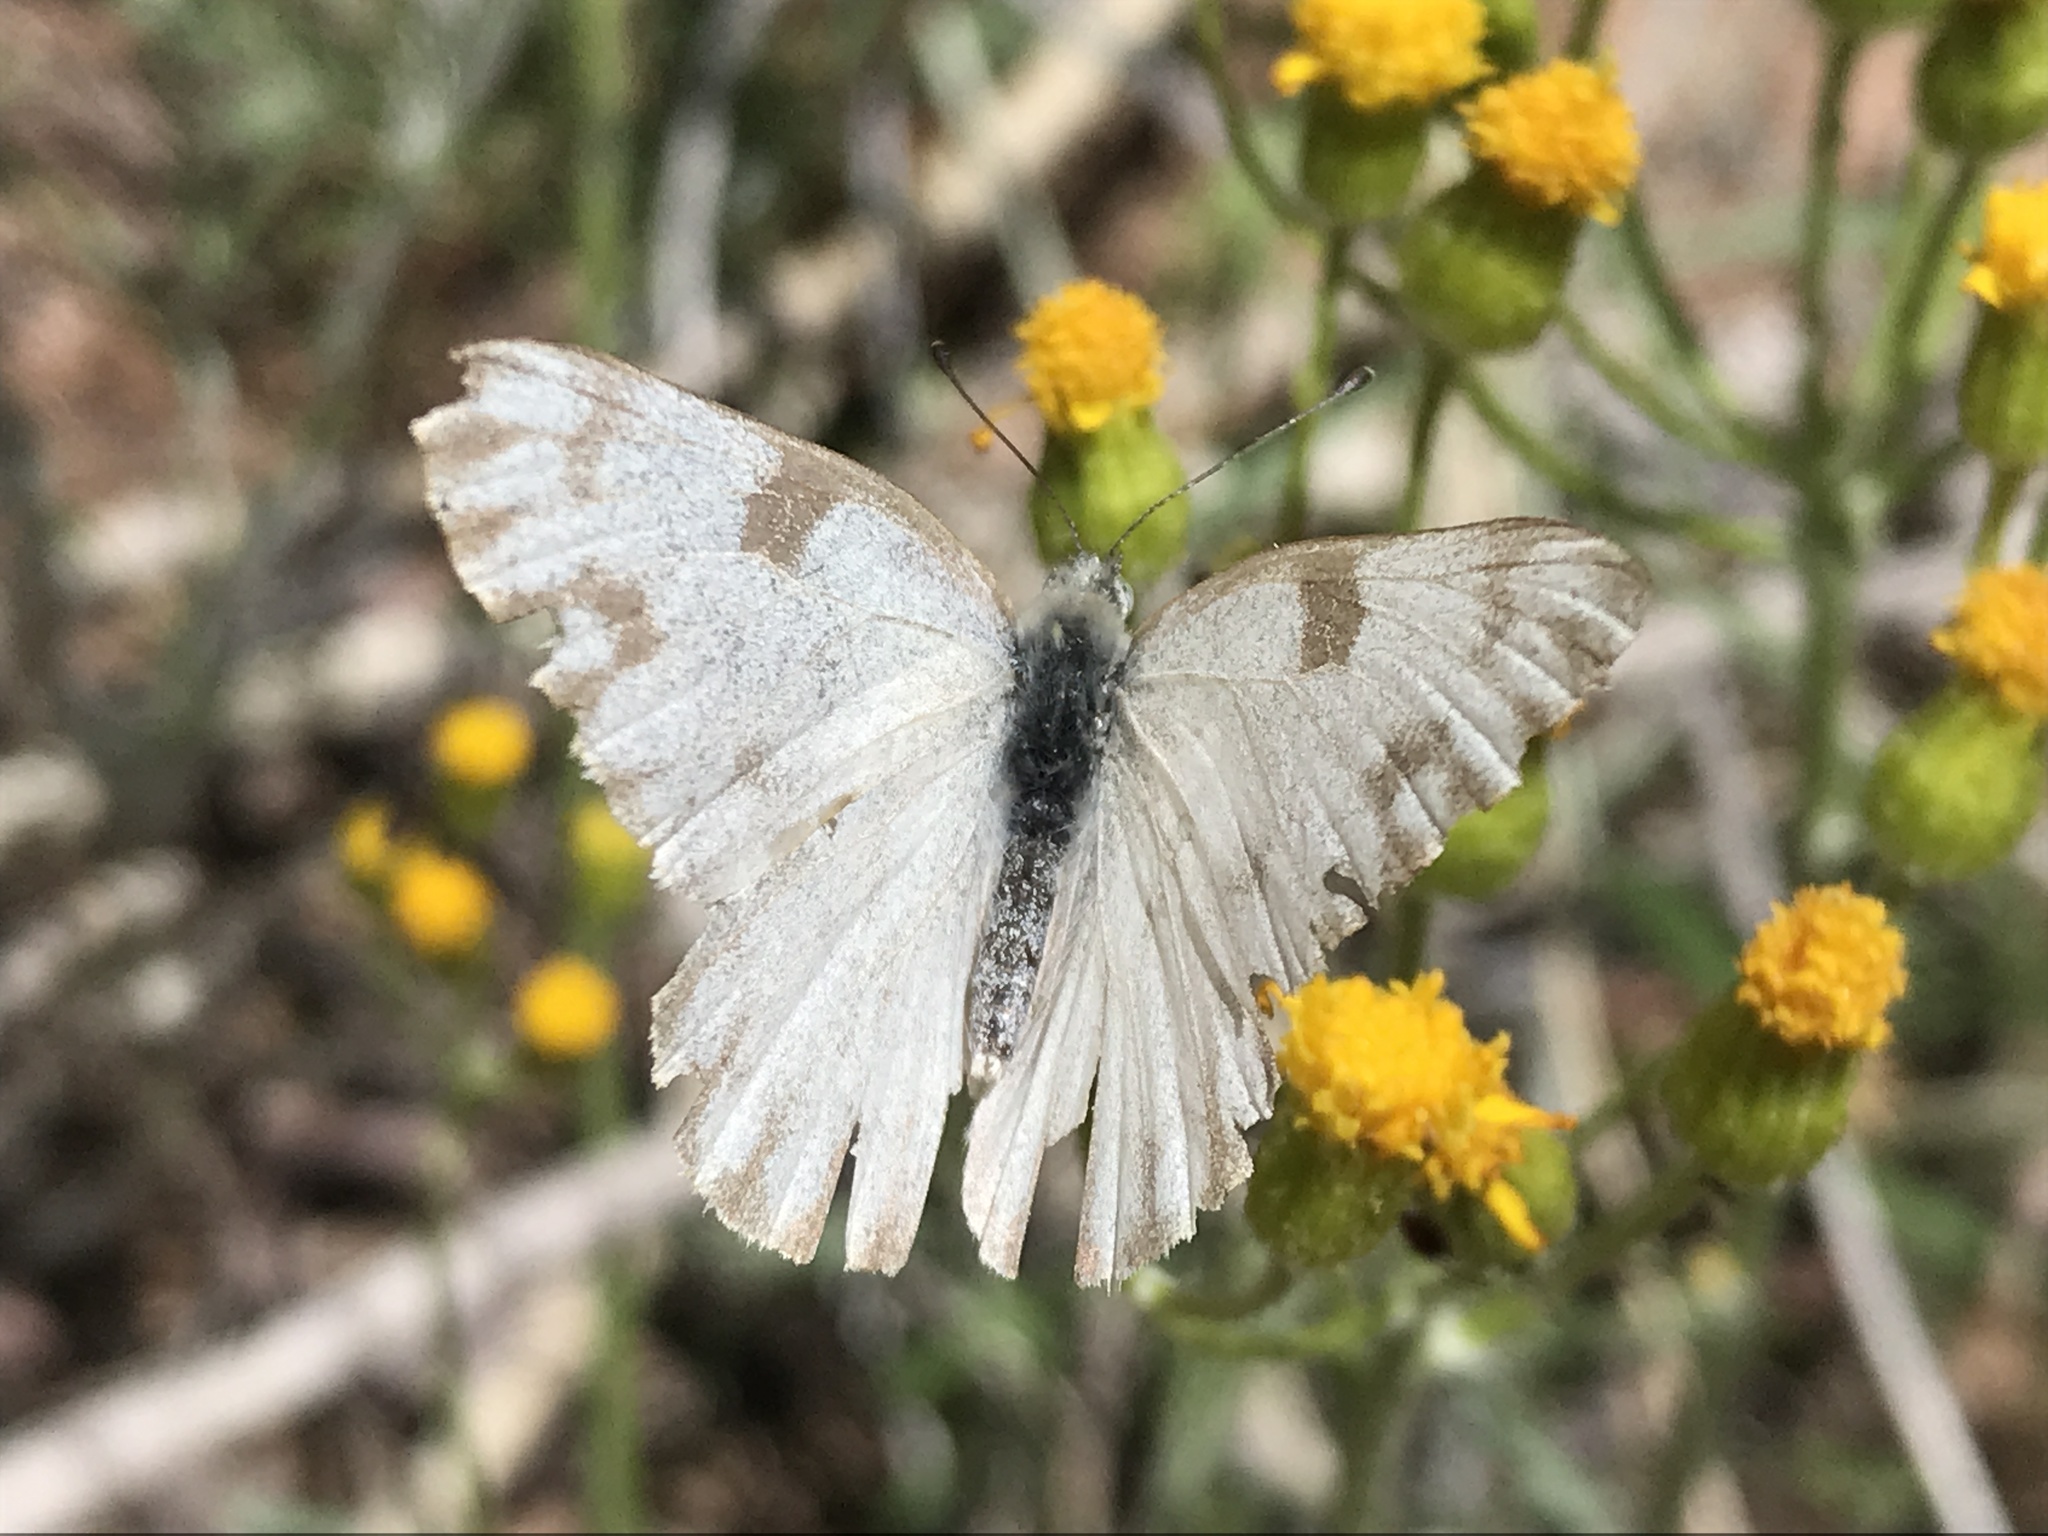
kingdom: Animalia
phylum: Arthropoda
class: Insecta
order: Lepidoptera
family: Pieridae
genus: Pontia
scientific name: Pontia protodice
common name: Checkered white
